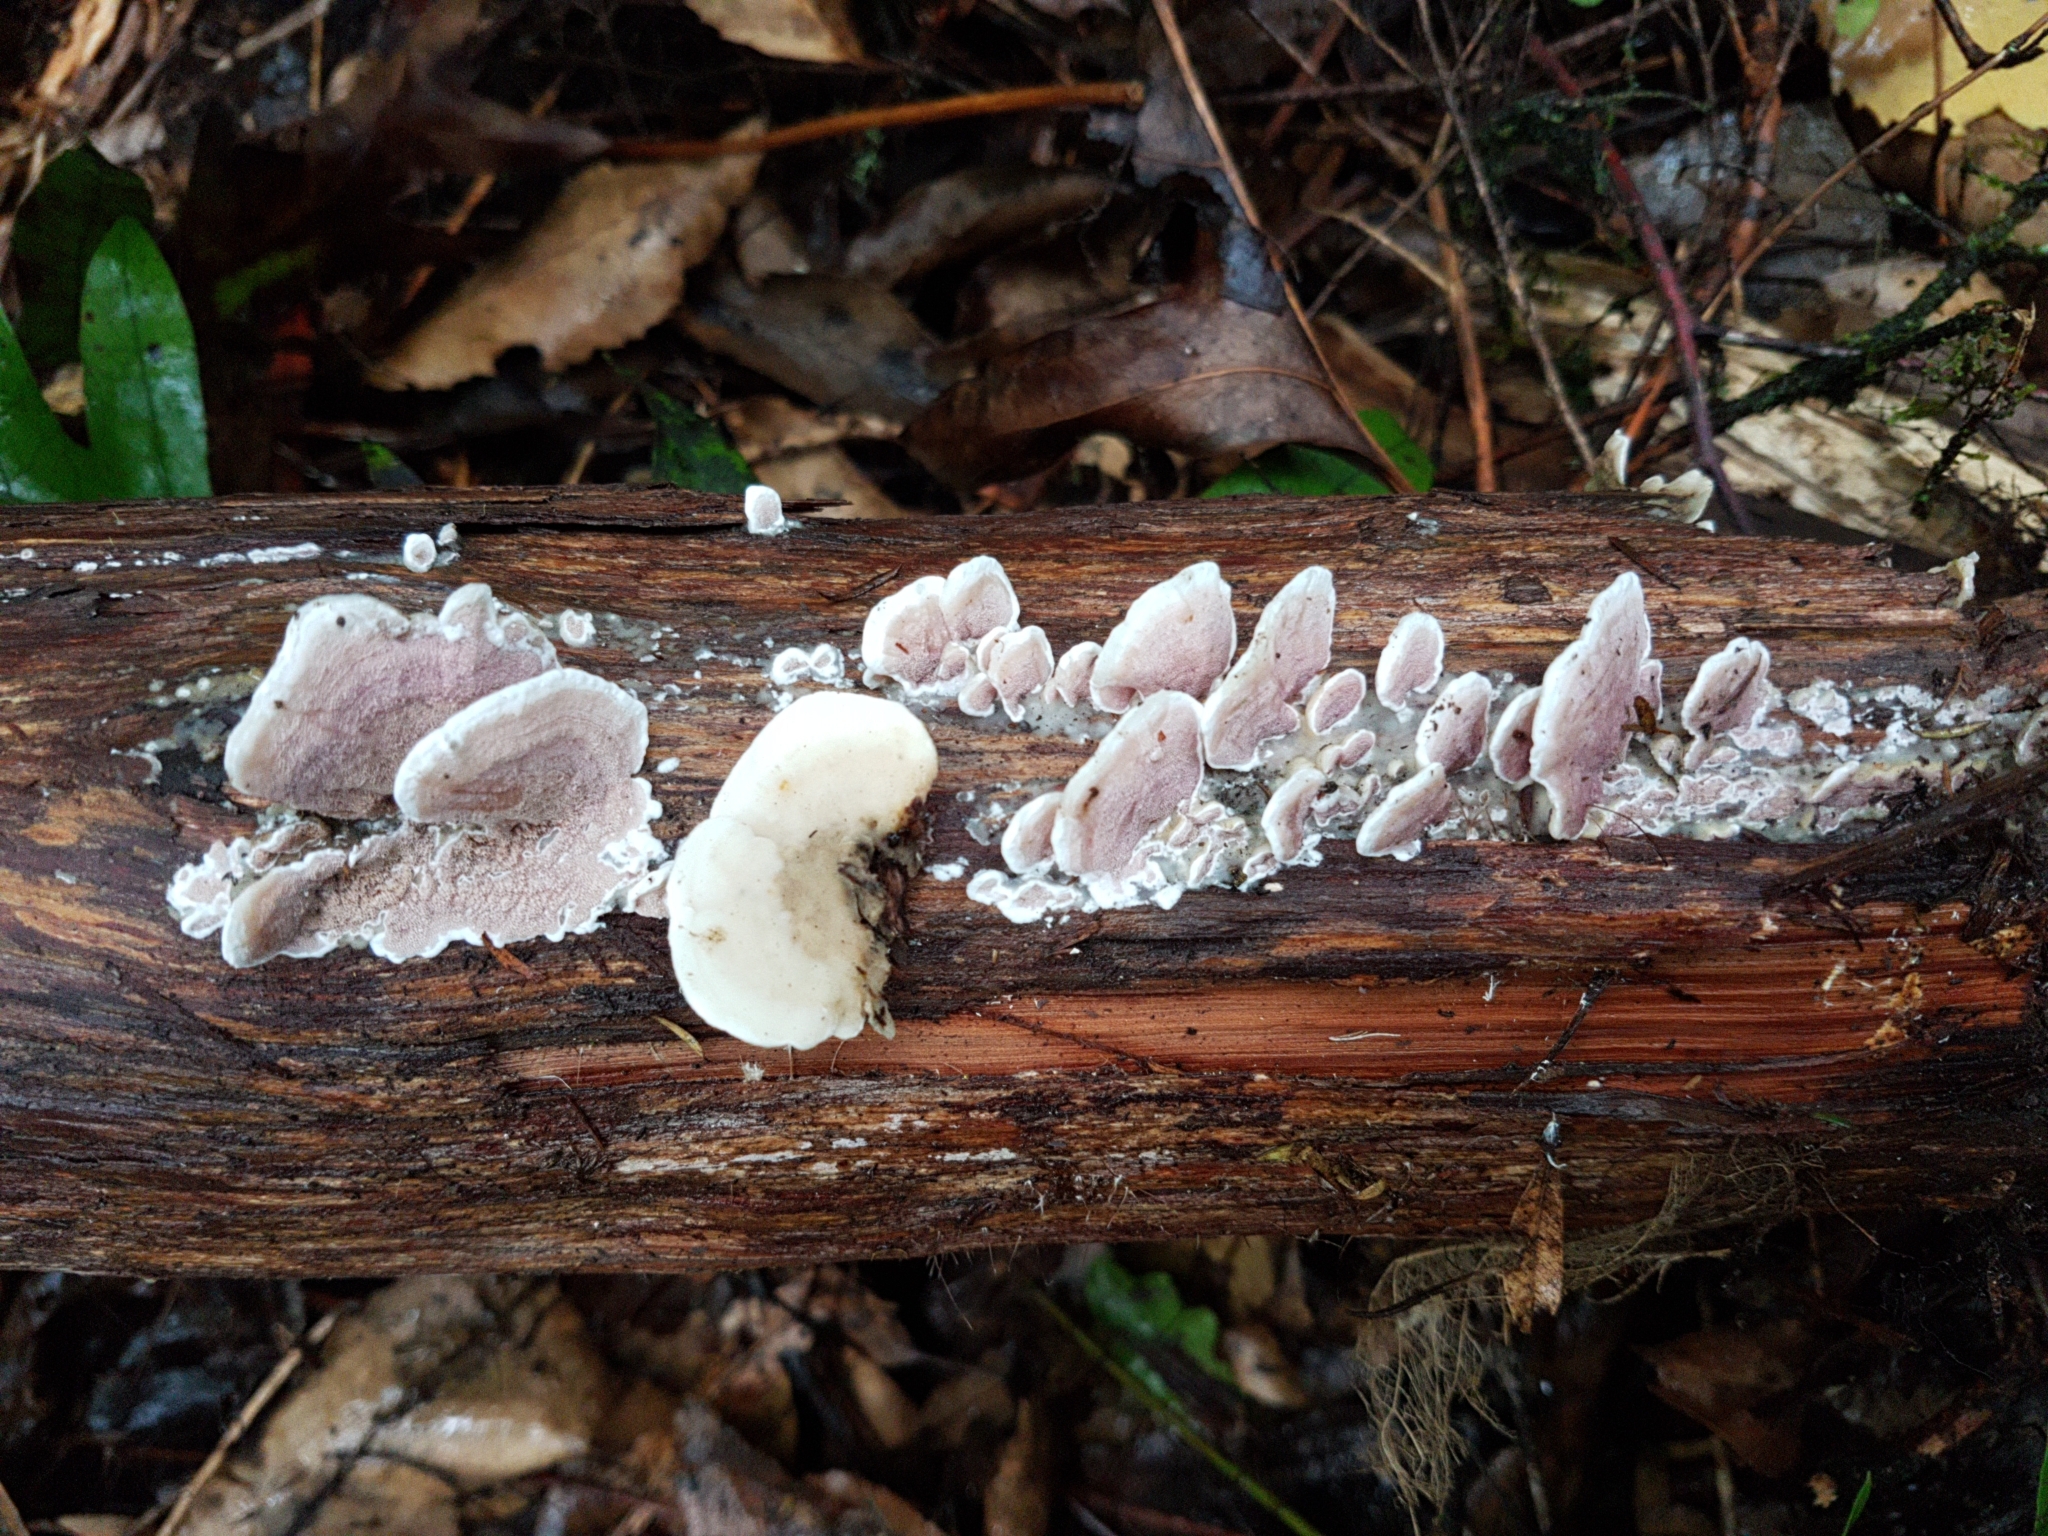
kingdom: Fungi
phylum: Basidiomycota
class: Agaricomycetes
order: Polyporales
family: Irpicaceae
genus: Vitreoporus
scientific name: Vitreoporus dichrous
